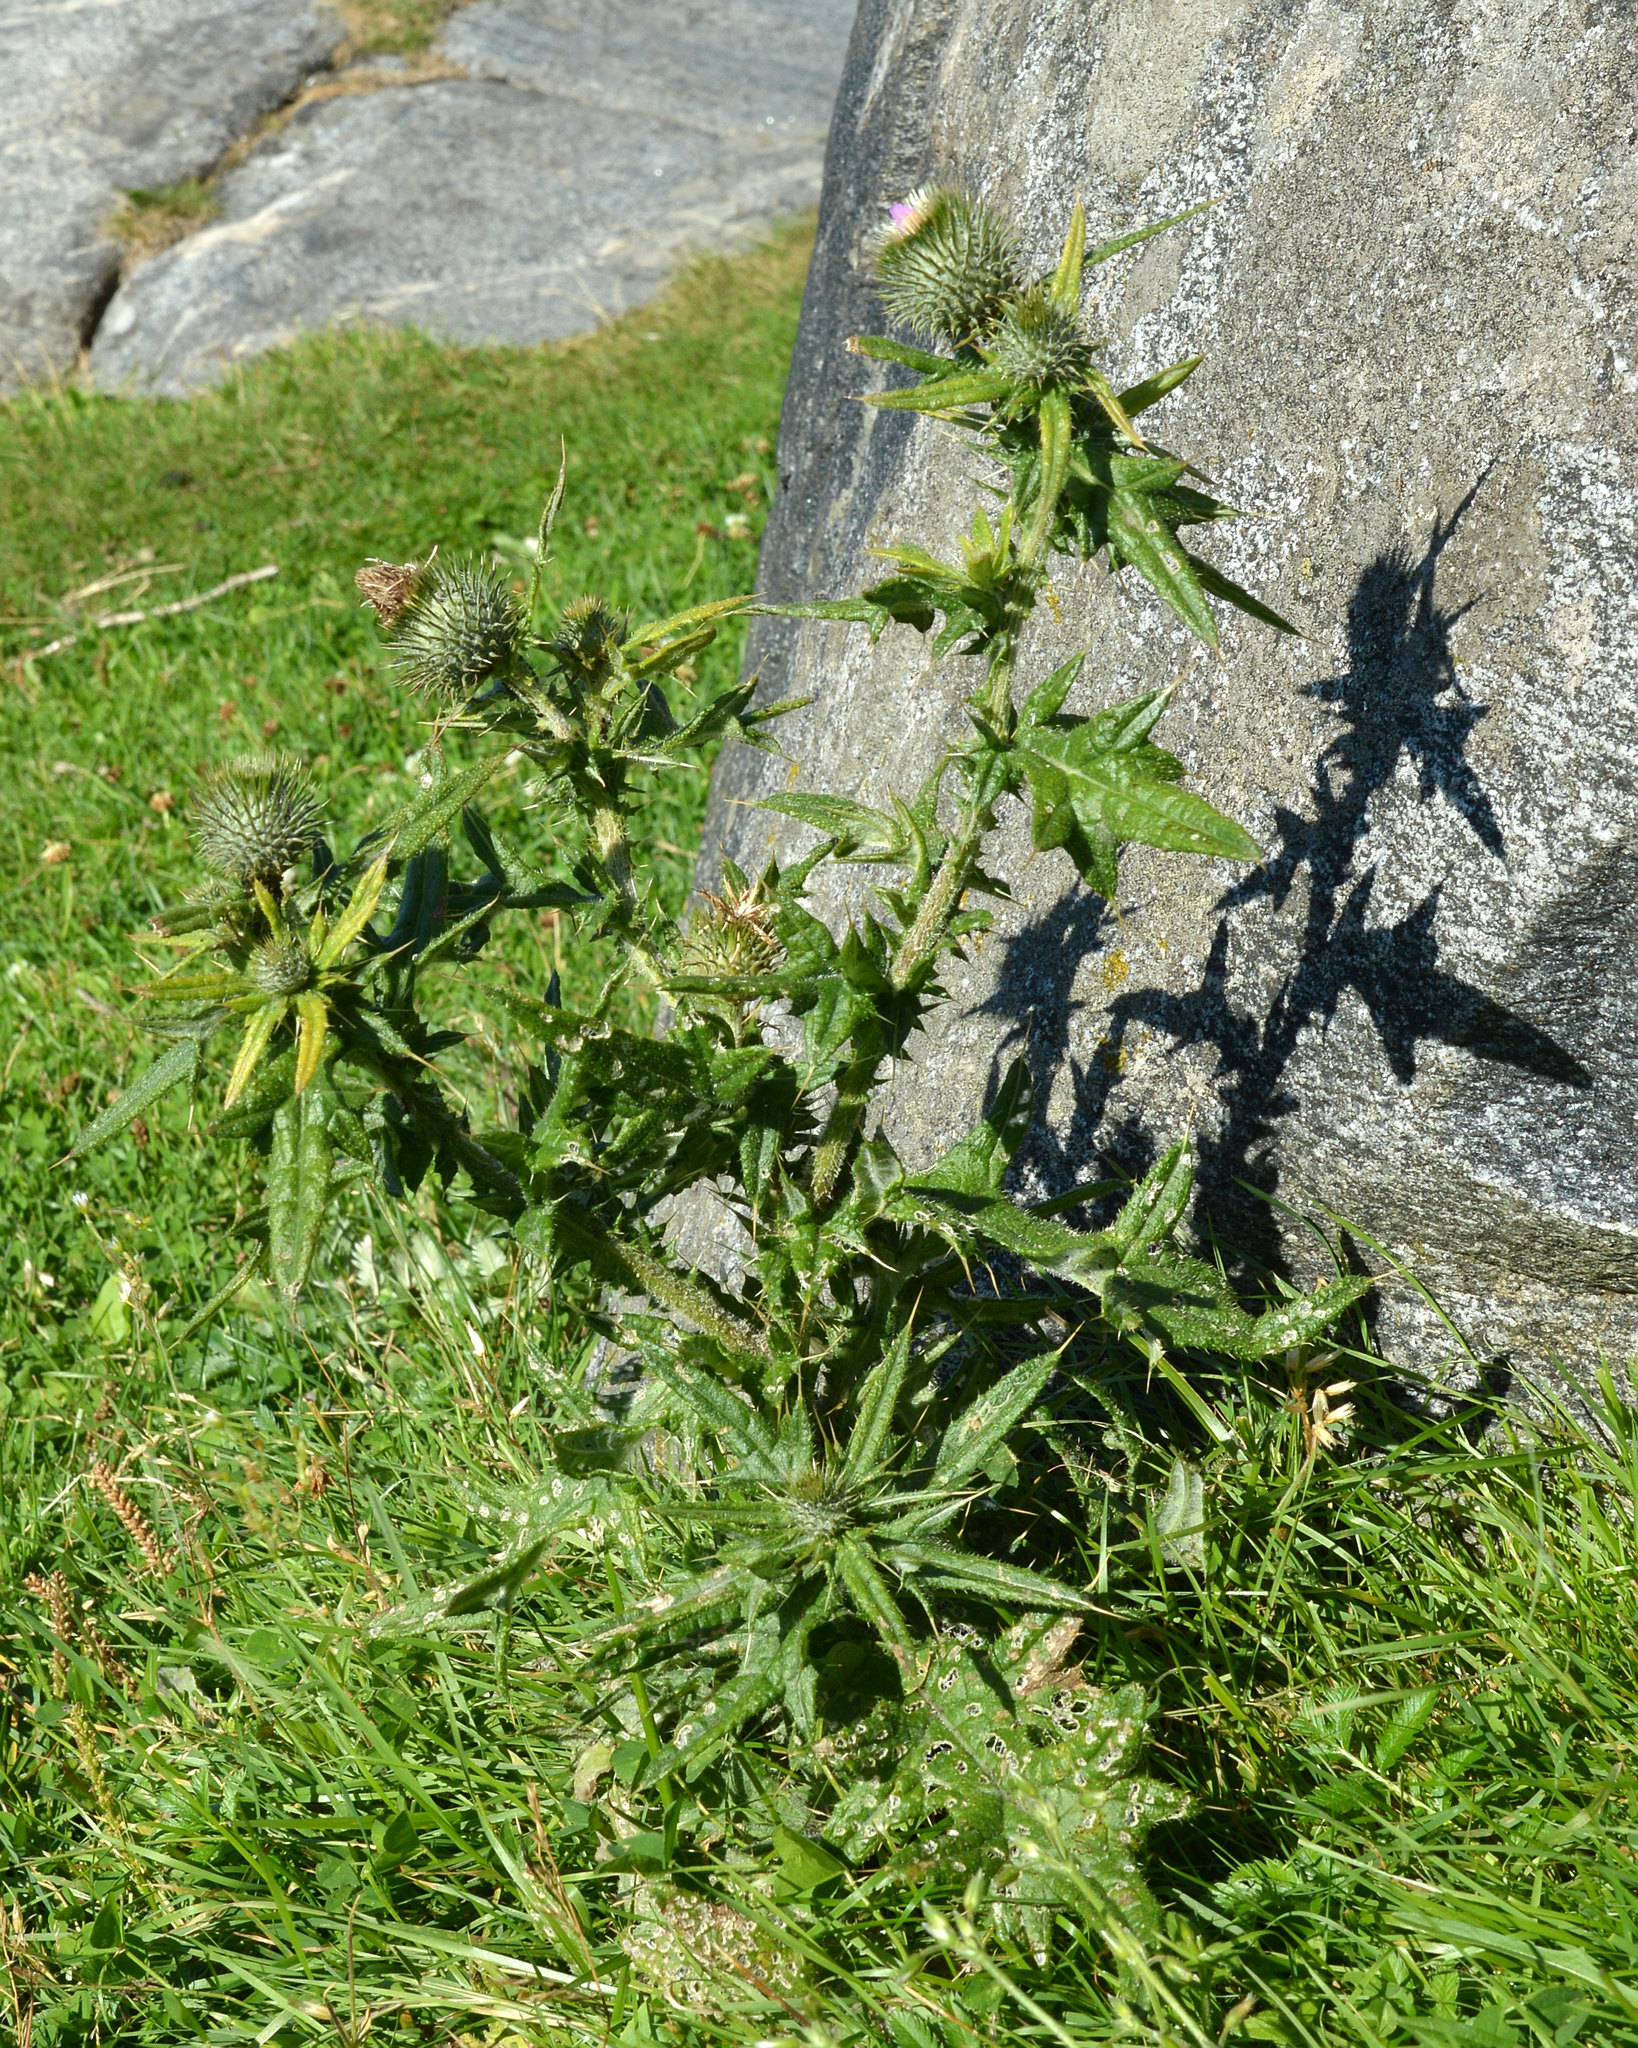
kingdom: Plantae
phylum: Tracheophyta
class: Magnoliopsida
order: Asterales
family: Asteraceae
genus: Cirsium
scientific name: Cirsium vulgare
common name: Bull thistle
